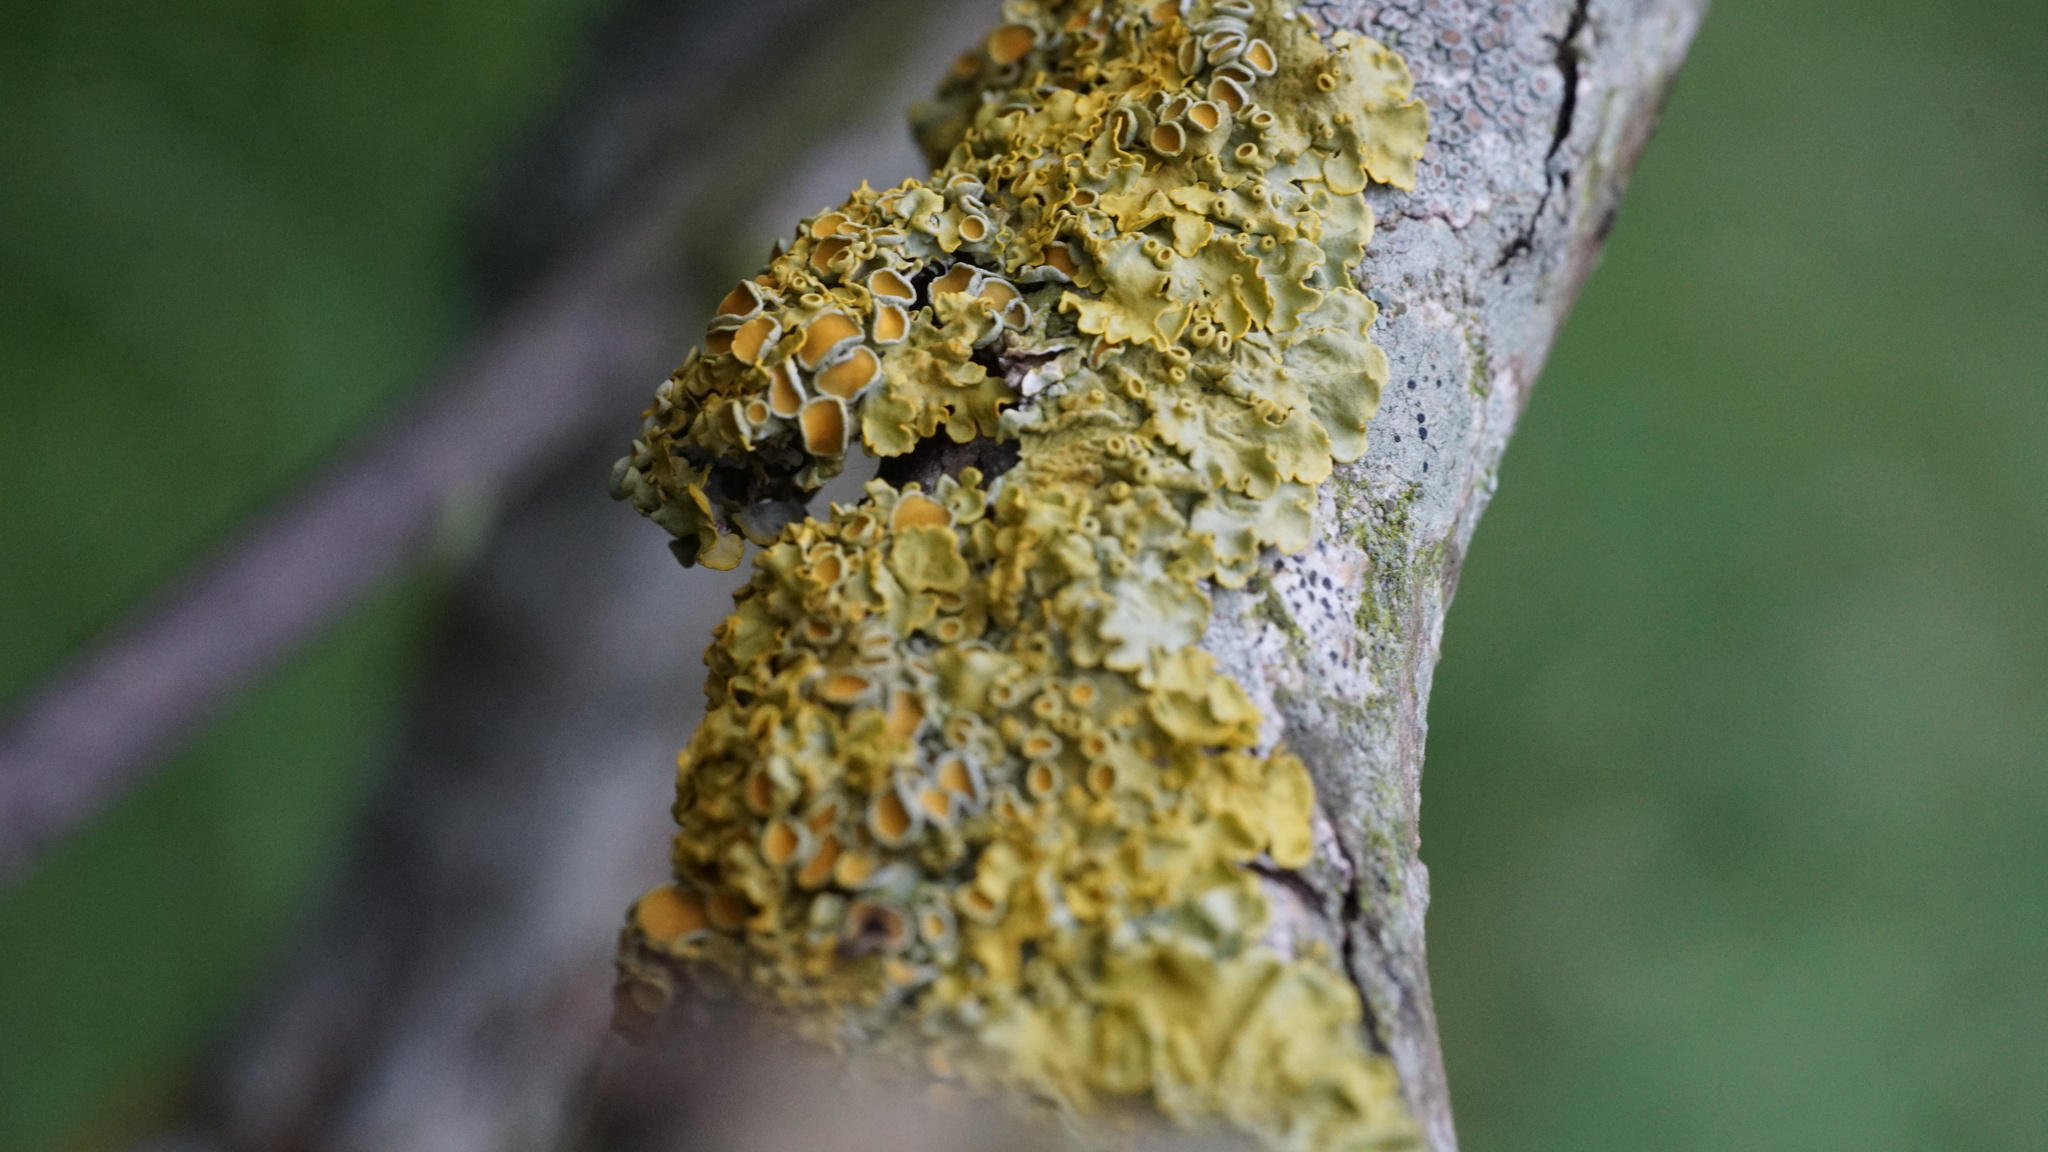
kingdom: Fungi
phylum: Ascomycota
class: Lecanoromycetes
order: Teloschistales
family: Teloschistaceae
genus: Xanthoria
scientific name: Xanthoria parietina
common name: Common orange lichen
